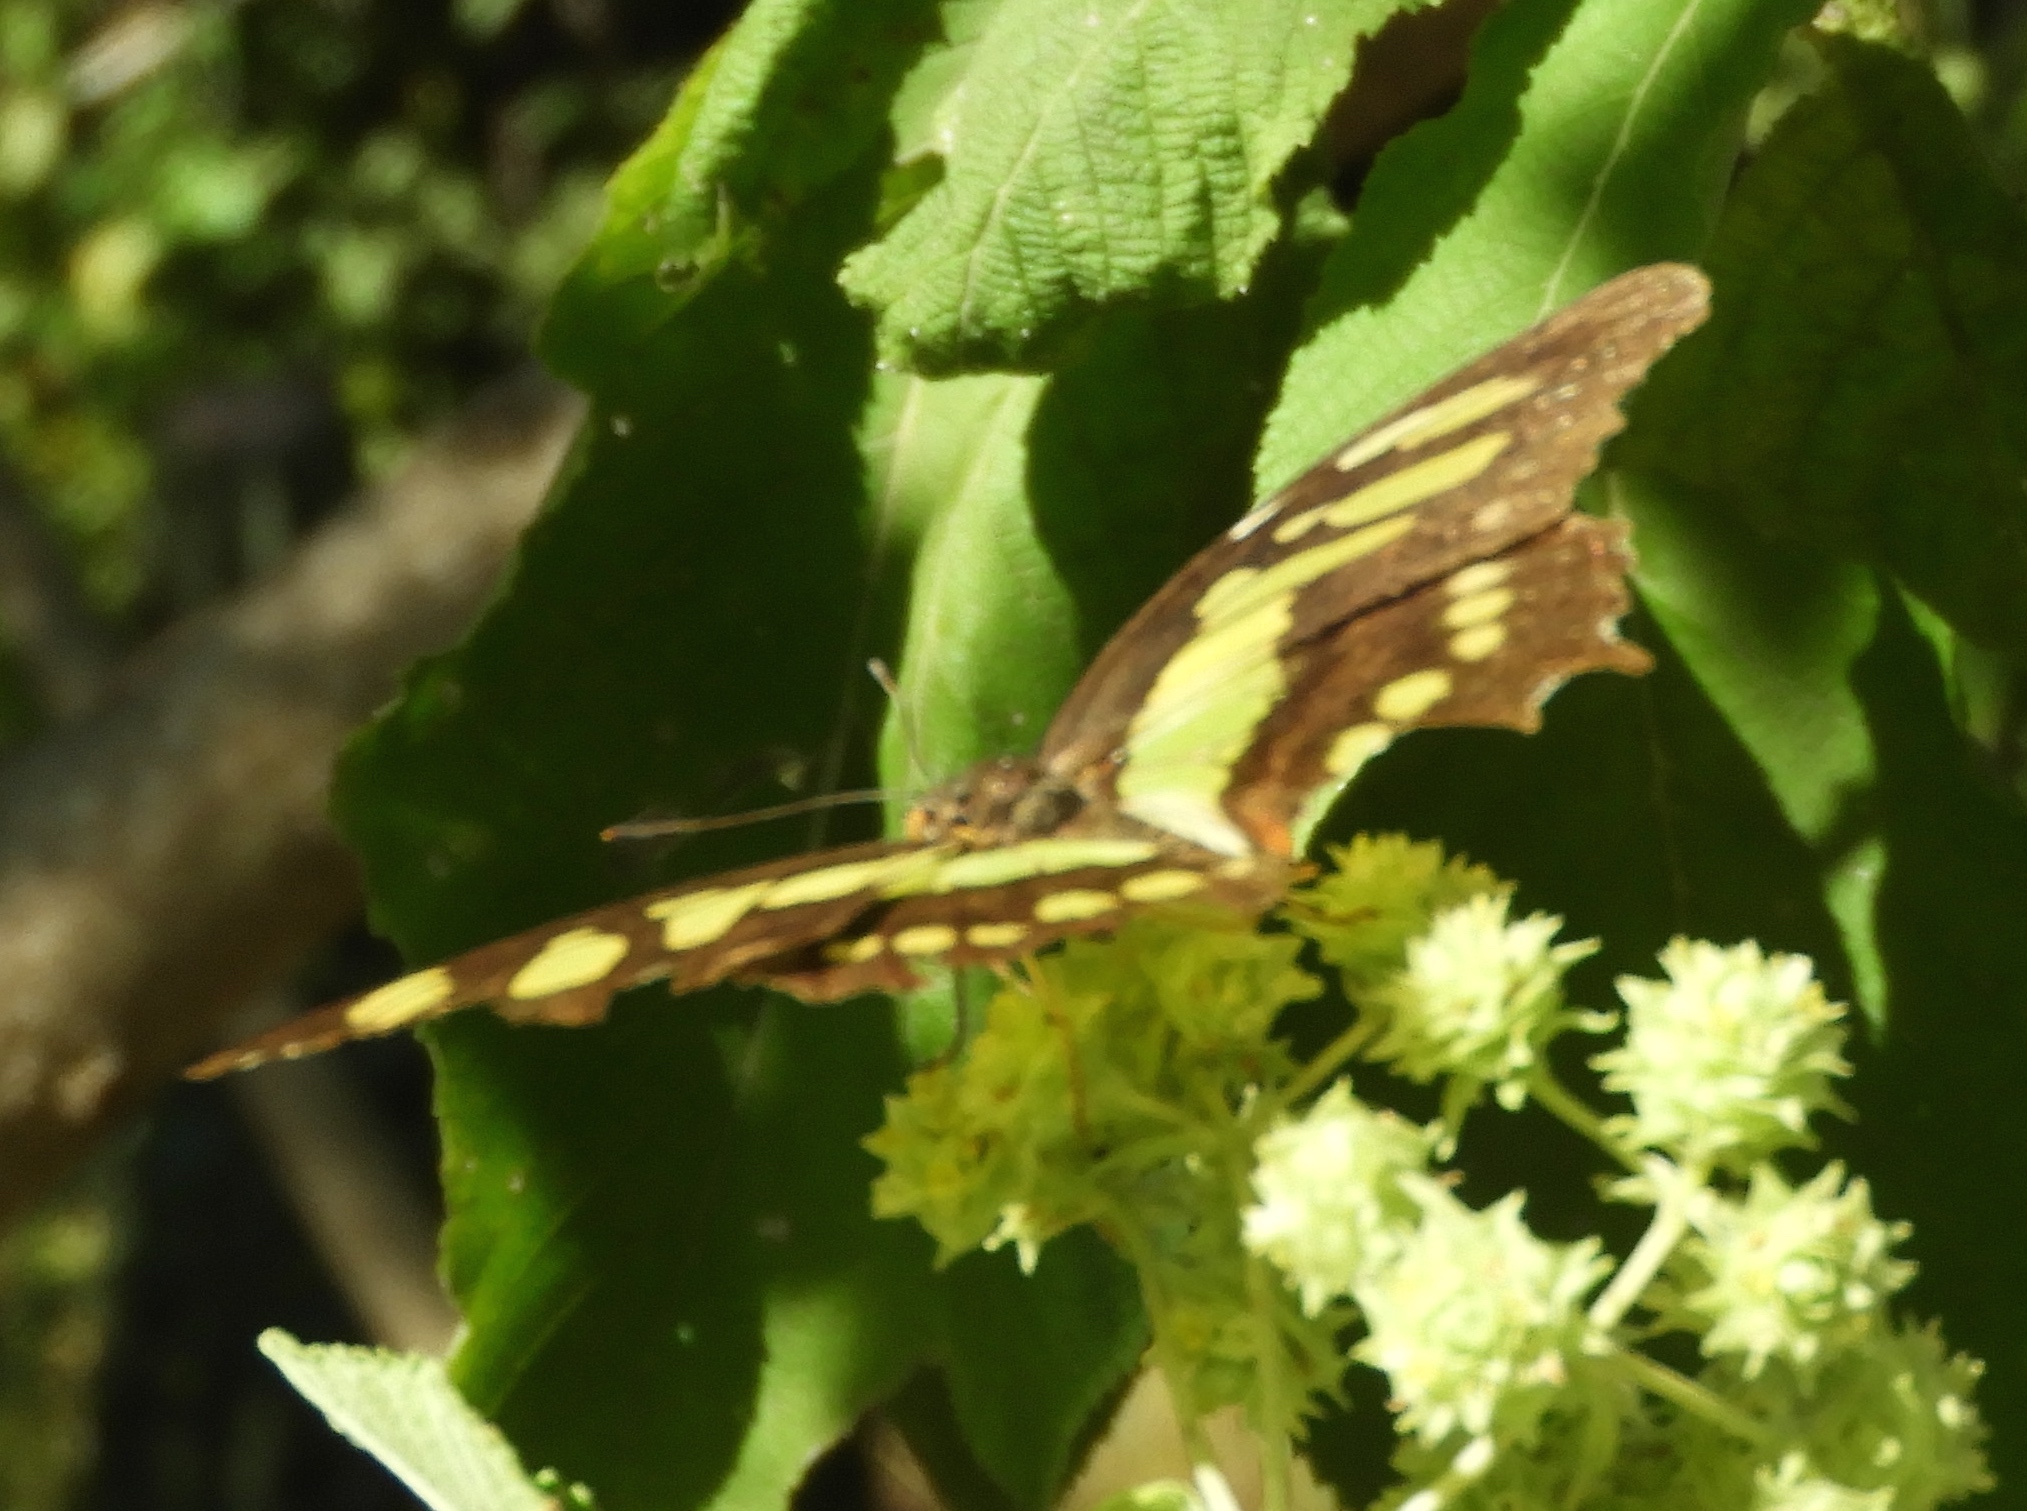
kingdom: Animalia
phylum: Arthropoda
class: Insecta
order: Lepidoptera
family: Nymphalidae
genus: Siproeta
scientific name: Siproeta stelenes
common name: Malachite
